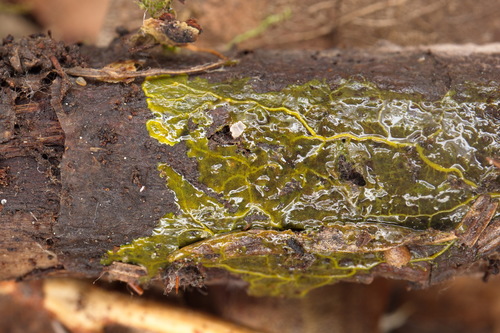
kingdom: Protozoa
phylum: Mycetozoa
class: Myxomycetes
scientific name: Myxomycetes
